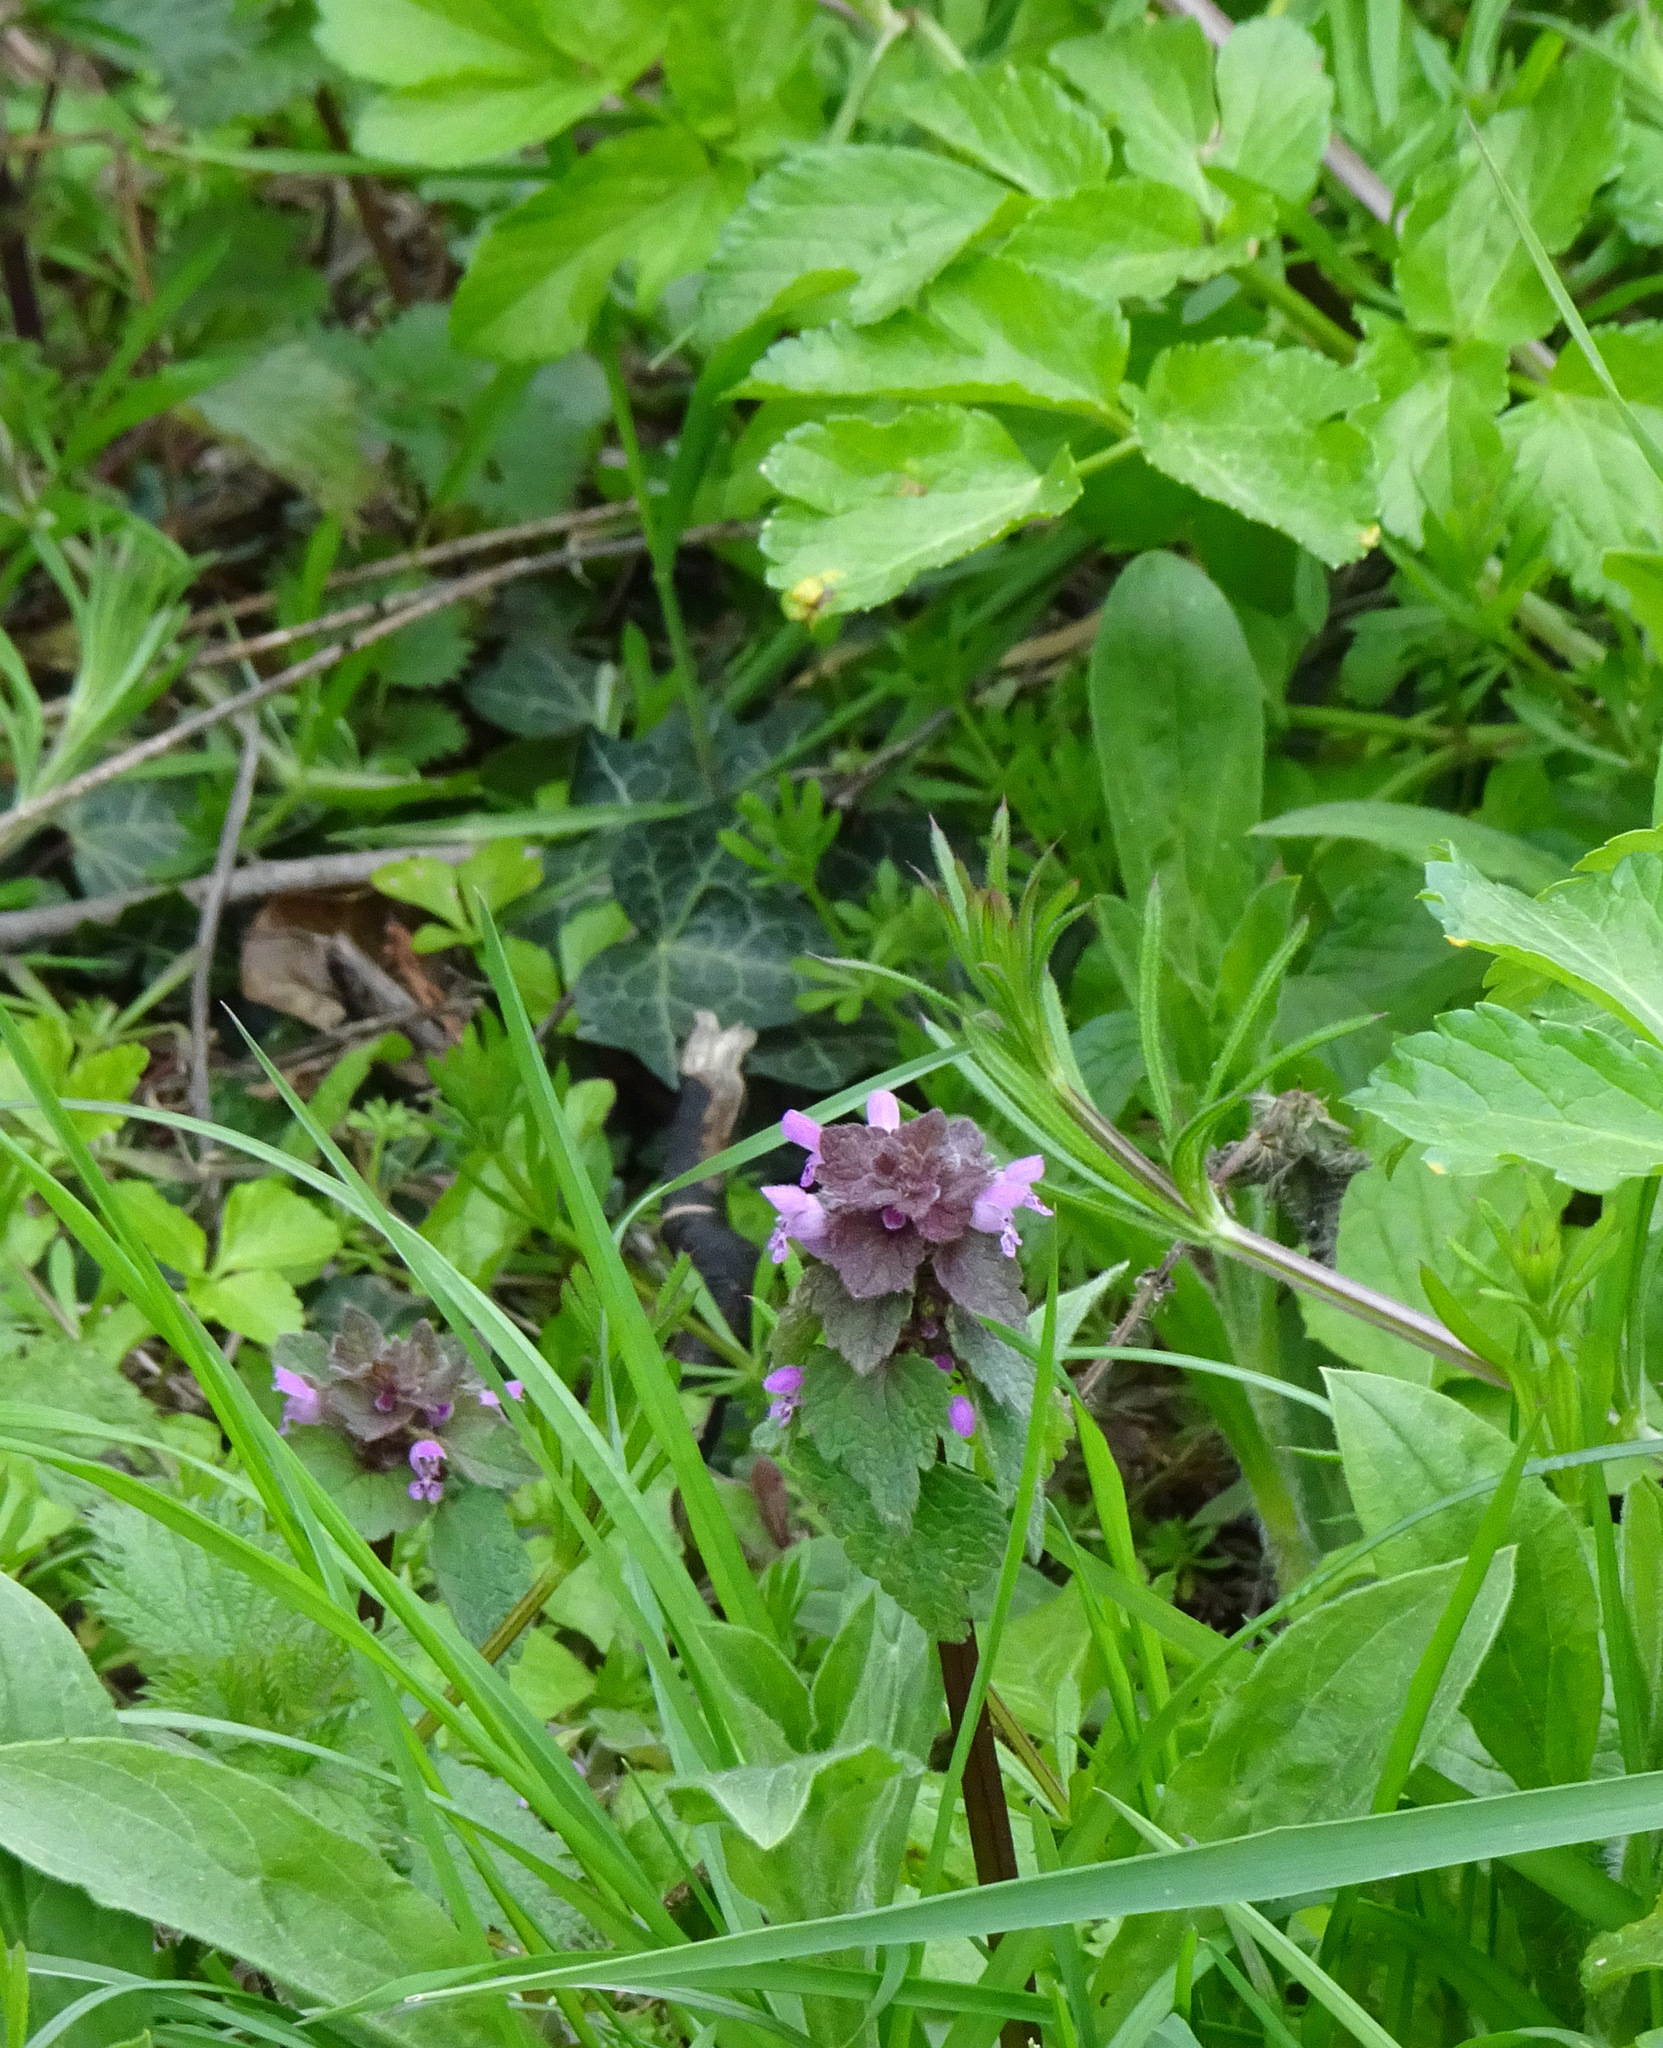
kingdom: Plantae
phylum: Tracheophyta
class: Magnoliopsida
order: Lamiales
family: Lamiaceae
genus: Lamium
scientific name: Lamium purpureum
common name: Red dead-nettle
